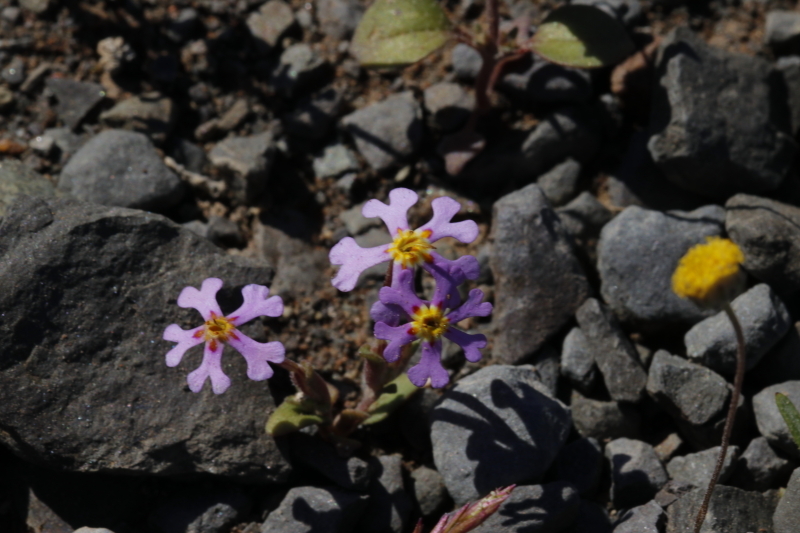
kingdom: Plantae
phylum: Tracheophyta
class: Magnoliopsida
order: Lamiales
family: Scrophulariaceae
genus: Zaluzianskya
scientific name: Zaluzianskya violacea
